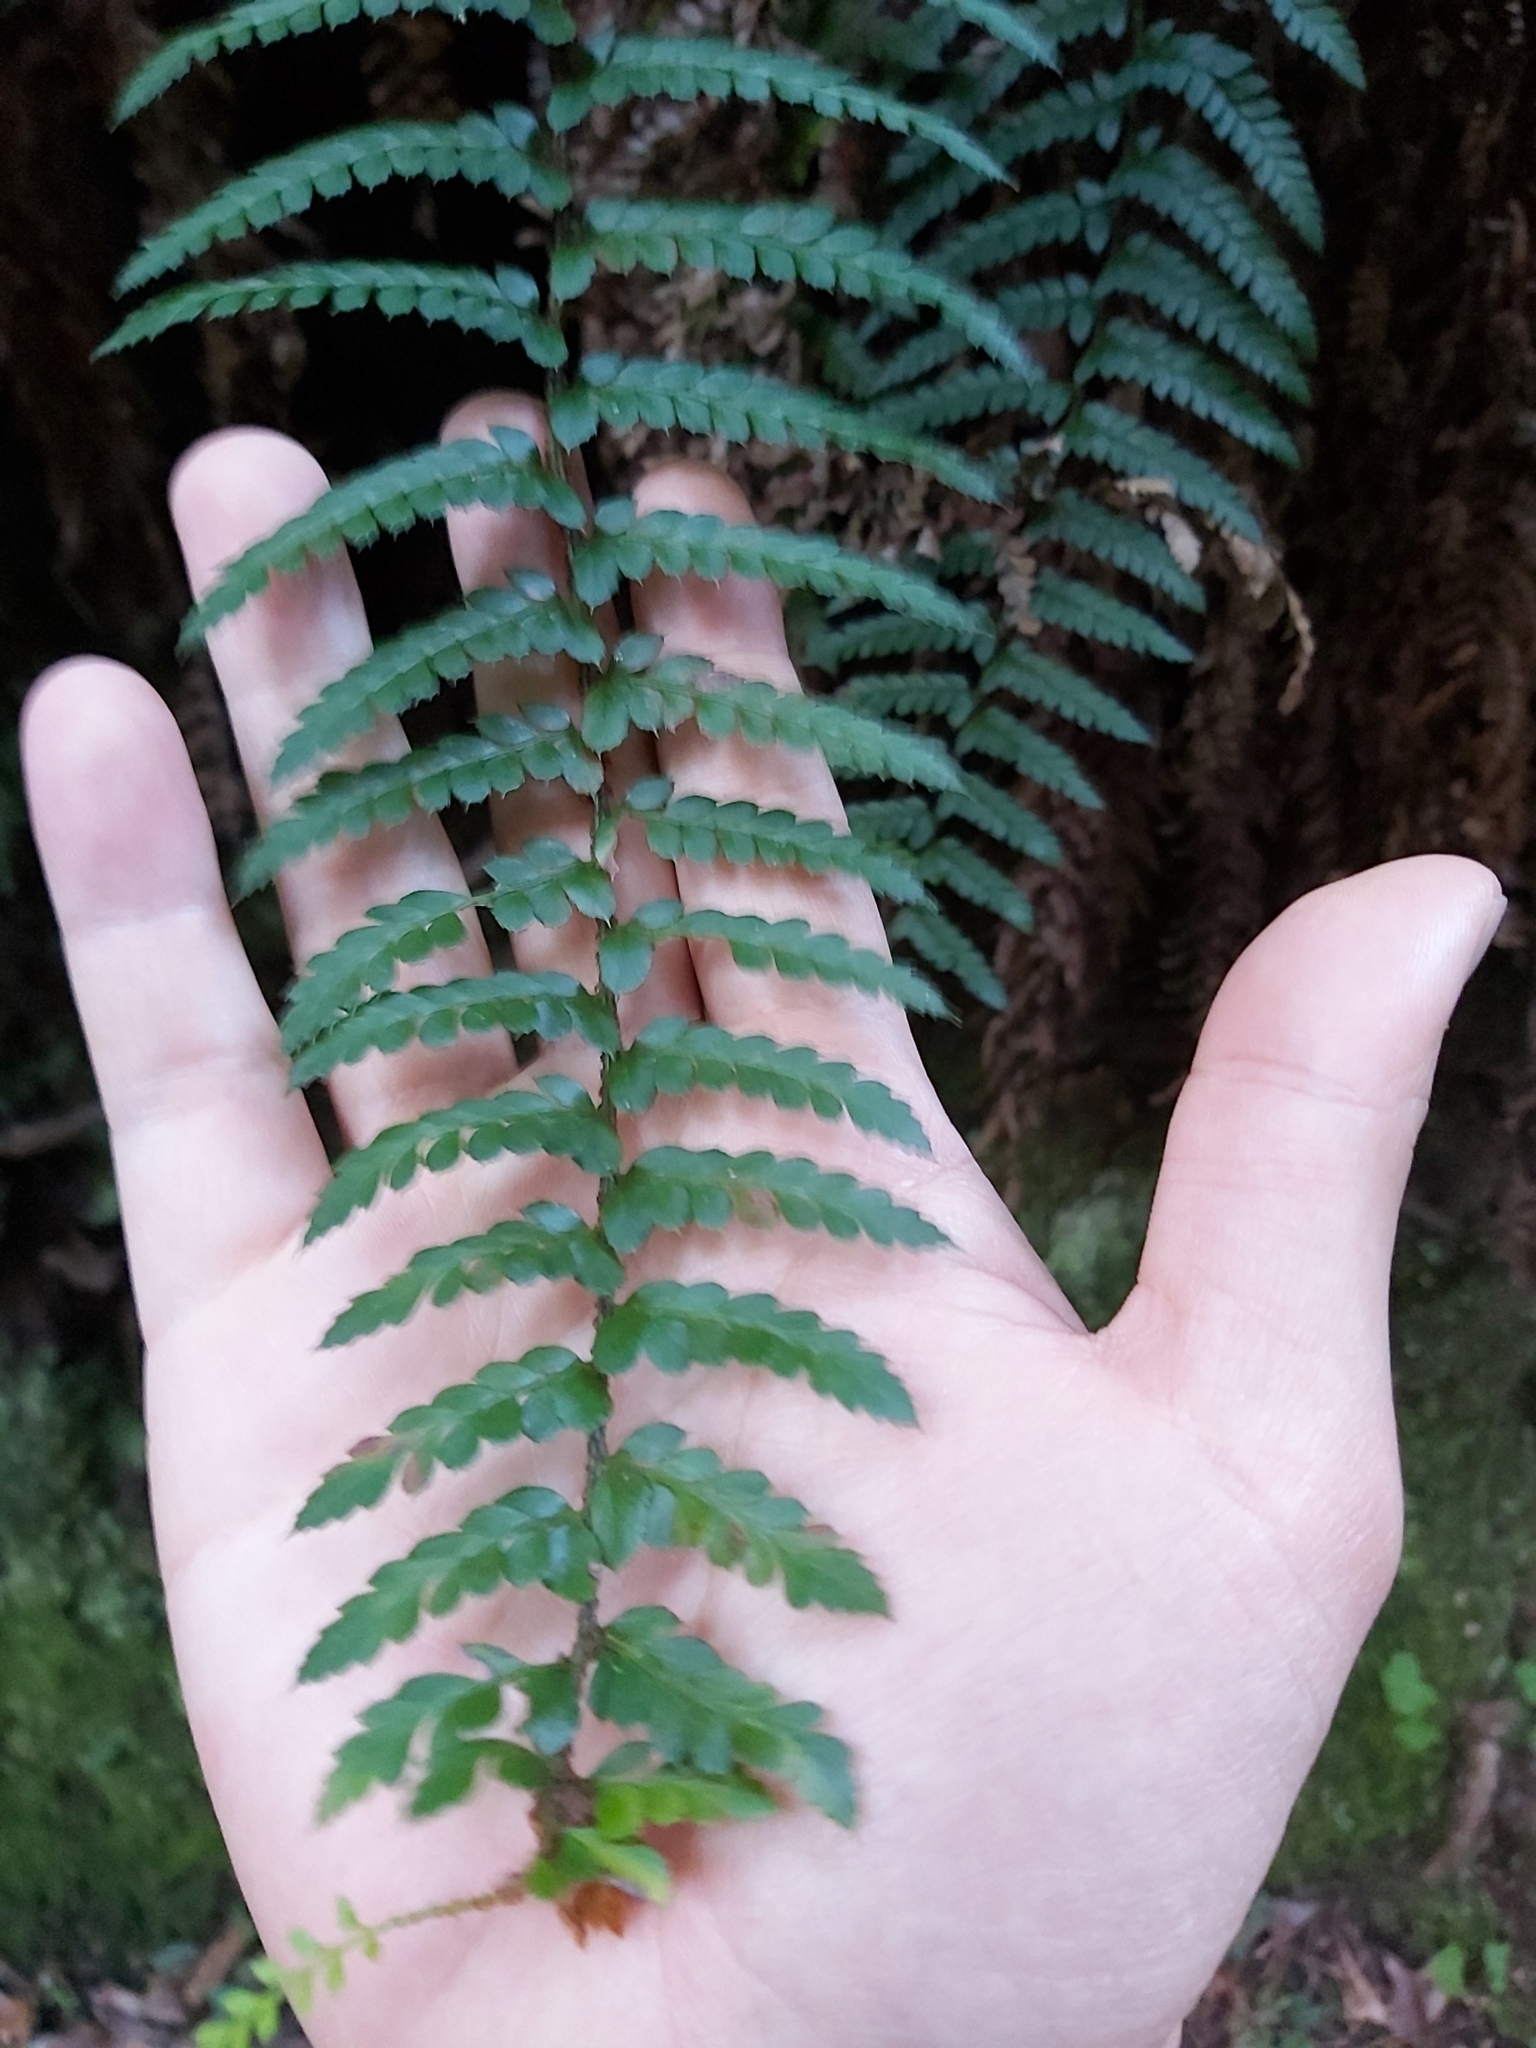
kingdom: Plantae
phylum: Tracheophyta
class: Polypodiopsida
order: Polypodiales
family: Dryopteridaceae
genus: Polystichum
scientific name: Polystichum australiense
